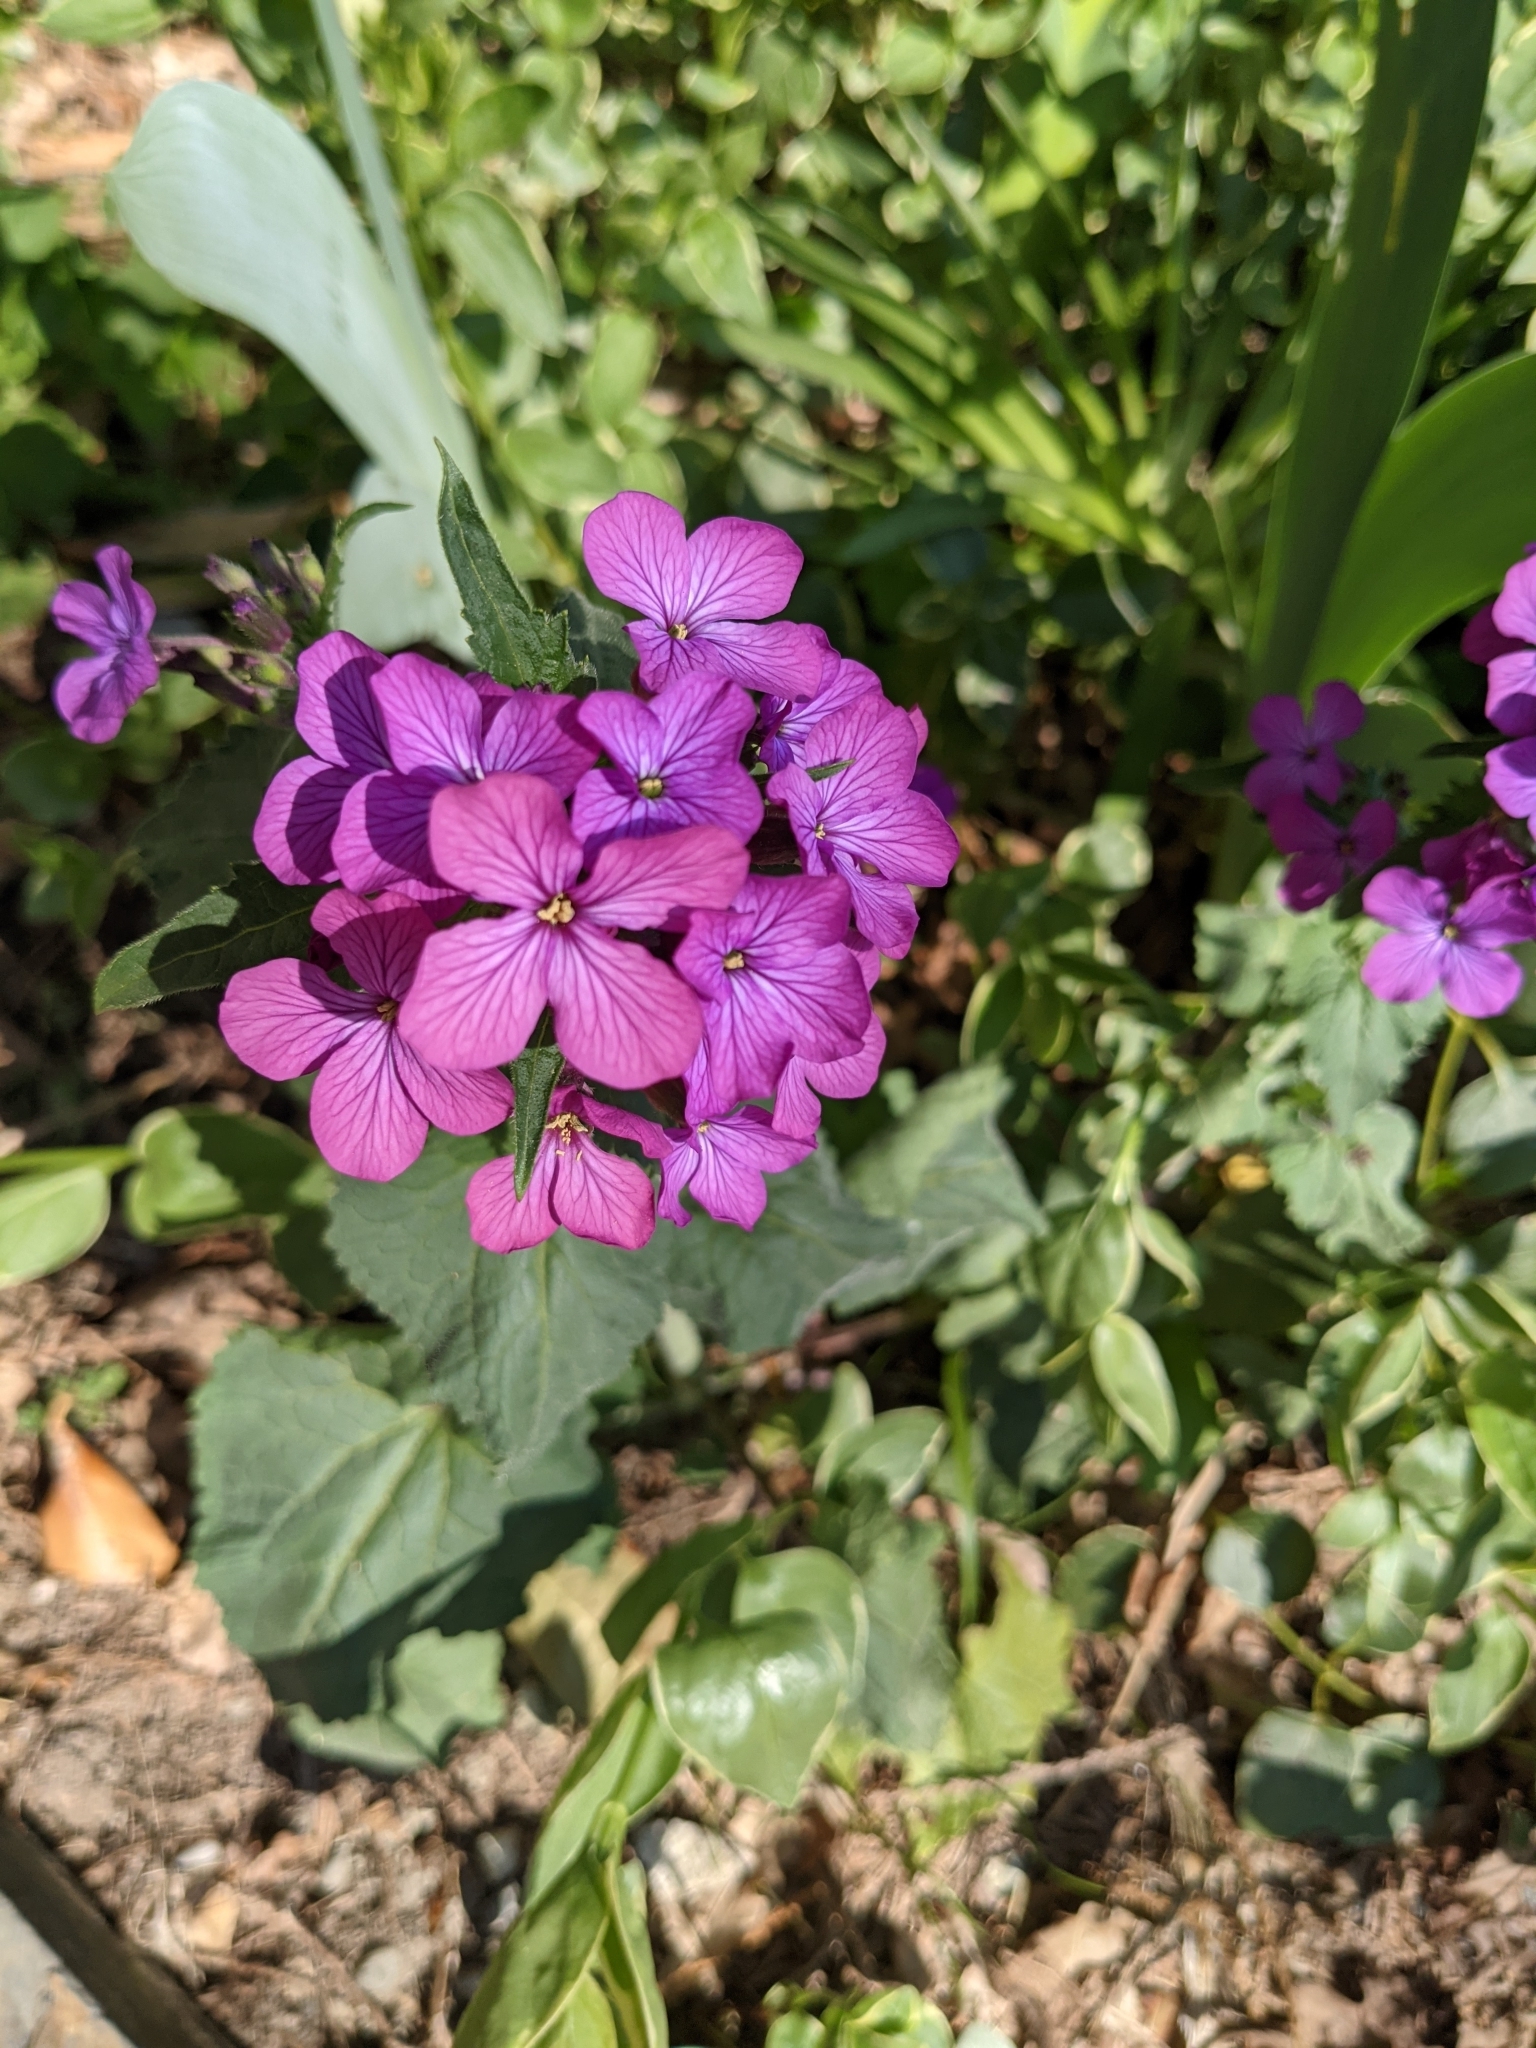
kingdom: Plantae
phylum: Tracheophyta
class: Magnoliopsida
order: Brassicales
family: Brassicaceae
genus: Lunaria
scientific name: Lunaria annua
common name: Honesty
